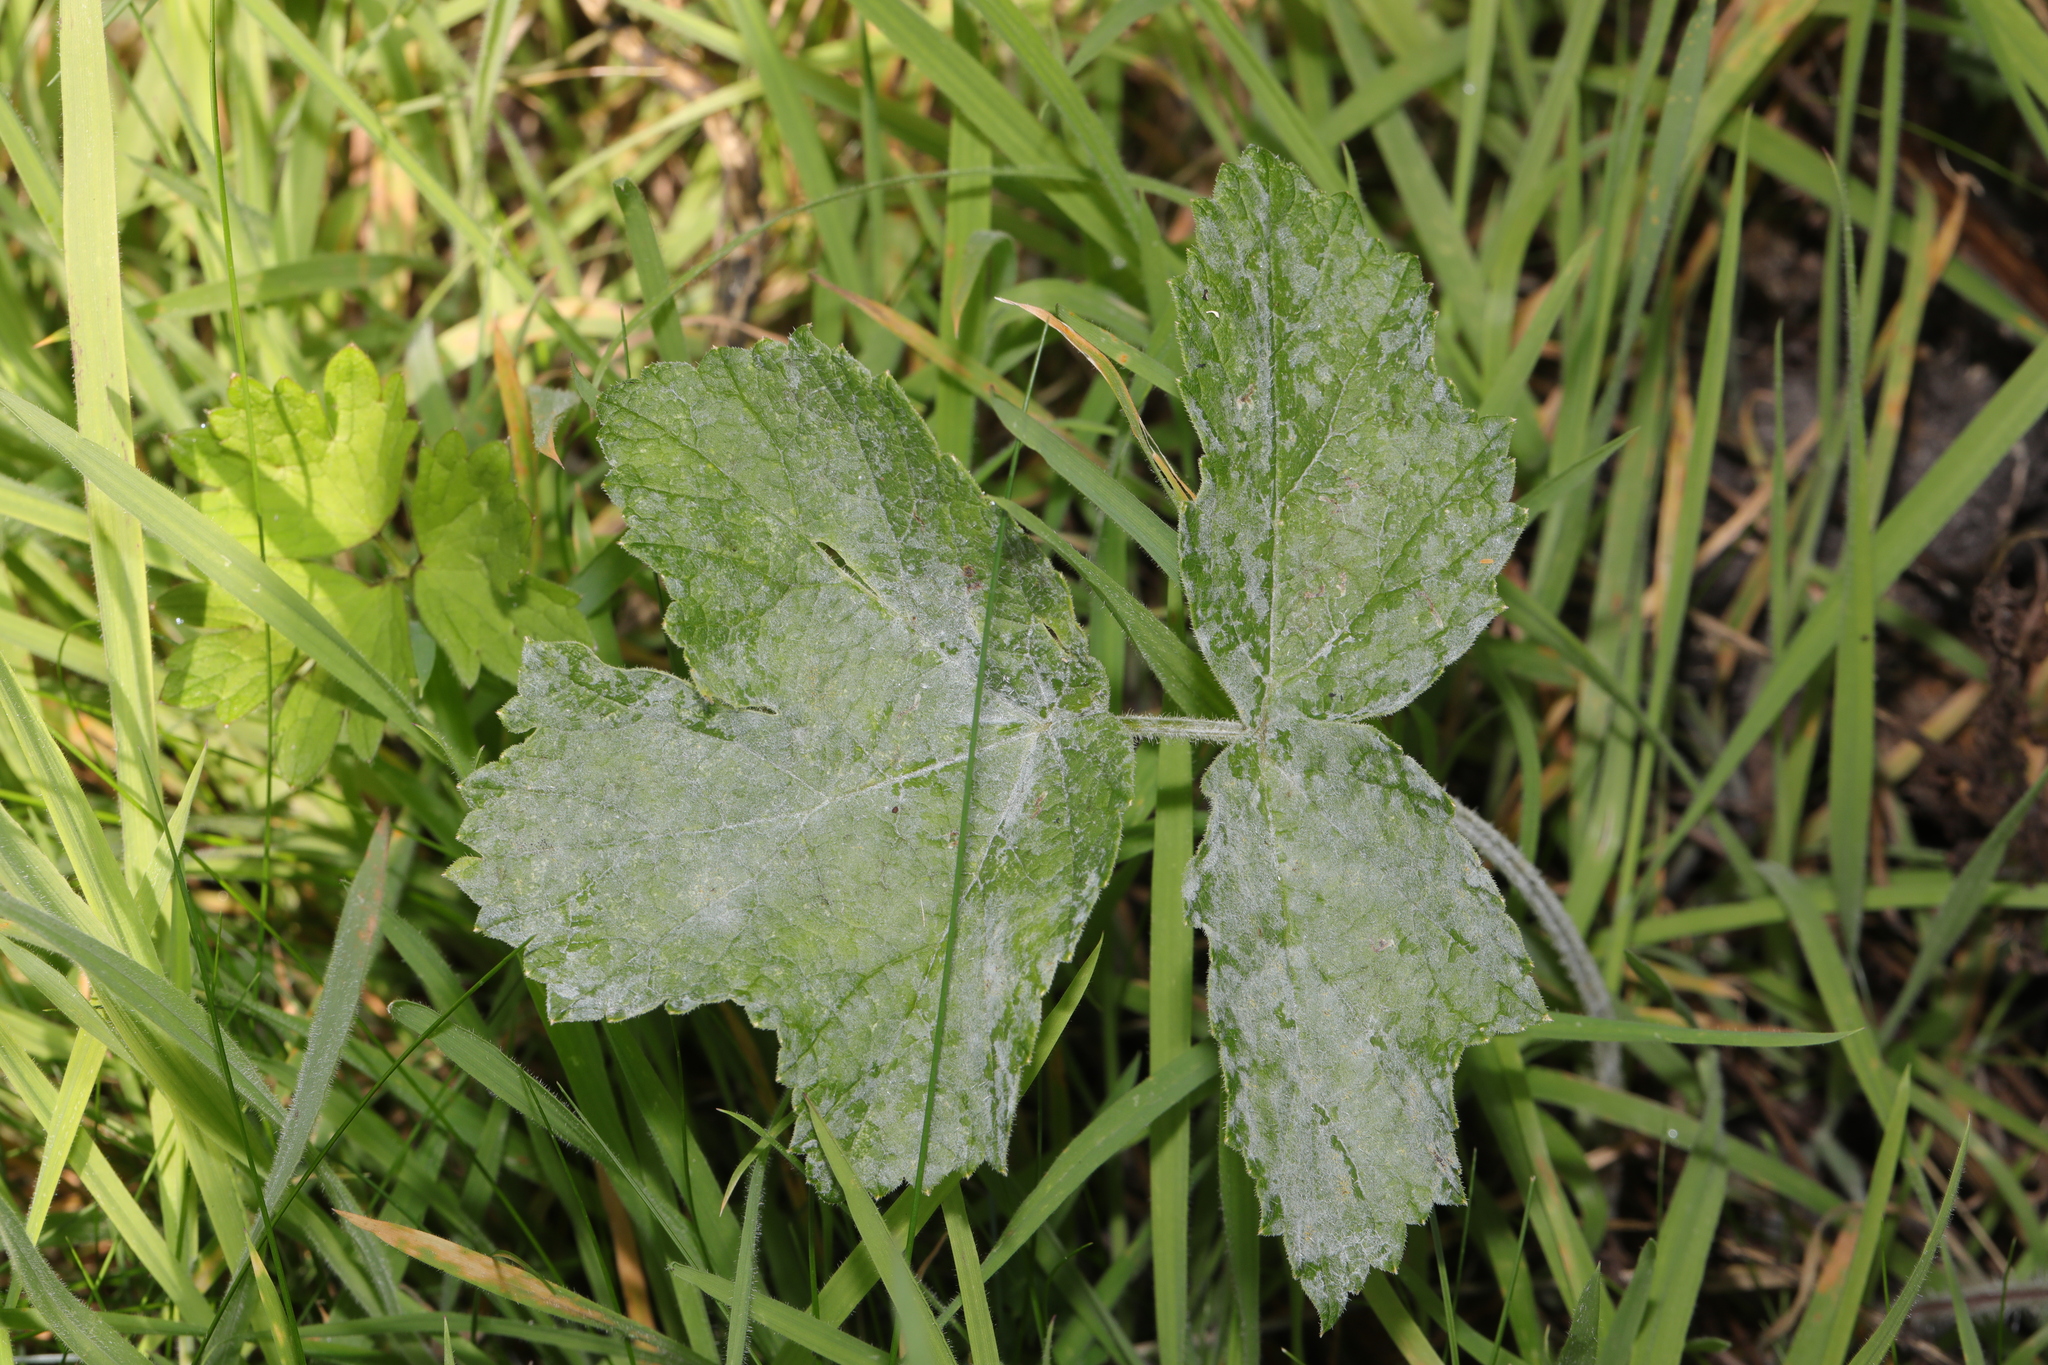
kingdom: Plantae
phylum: Tracheophyta
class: Magnoliopsida
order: Apiales
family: Apiaceae
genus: Heracleum
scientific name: Heracleum sphondylium
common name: Hogweed
